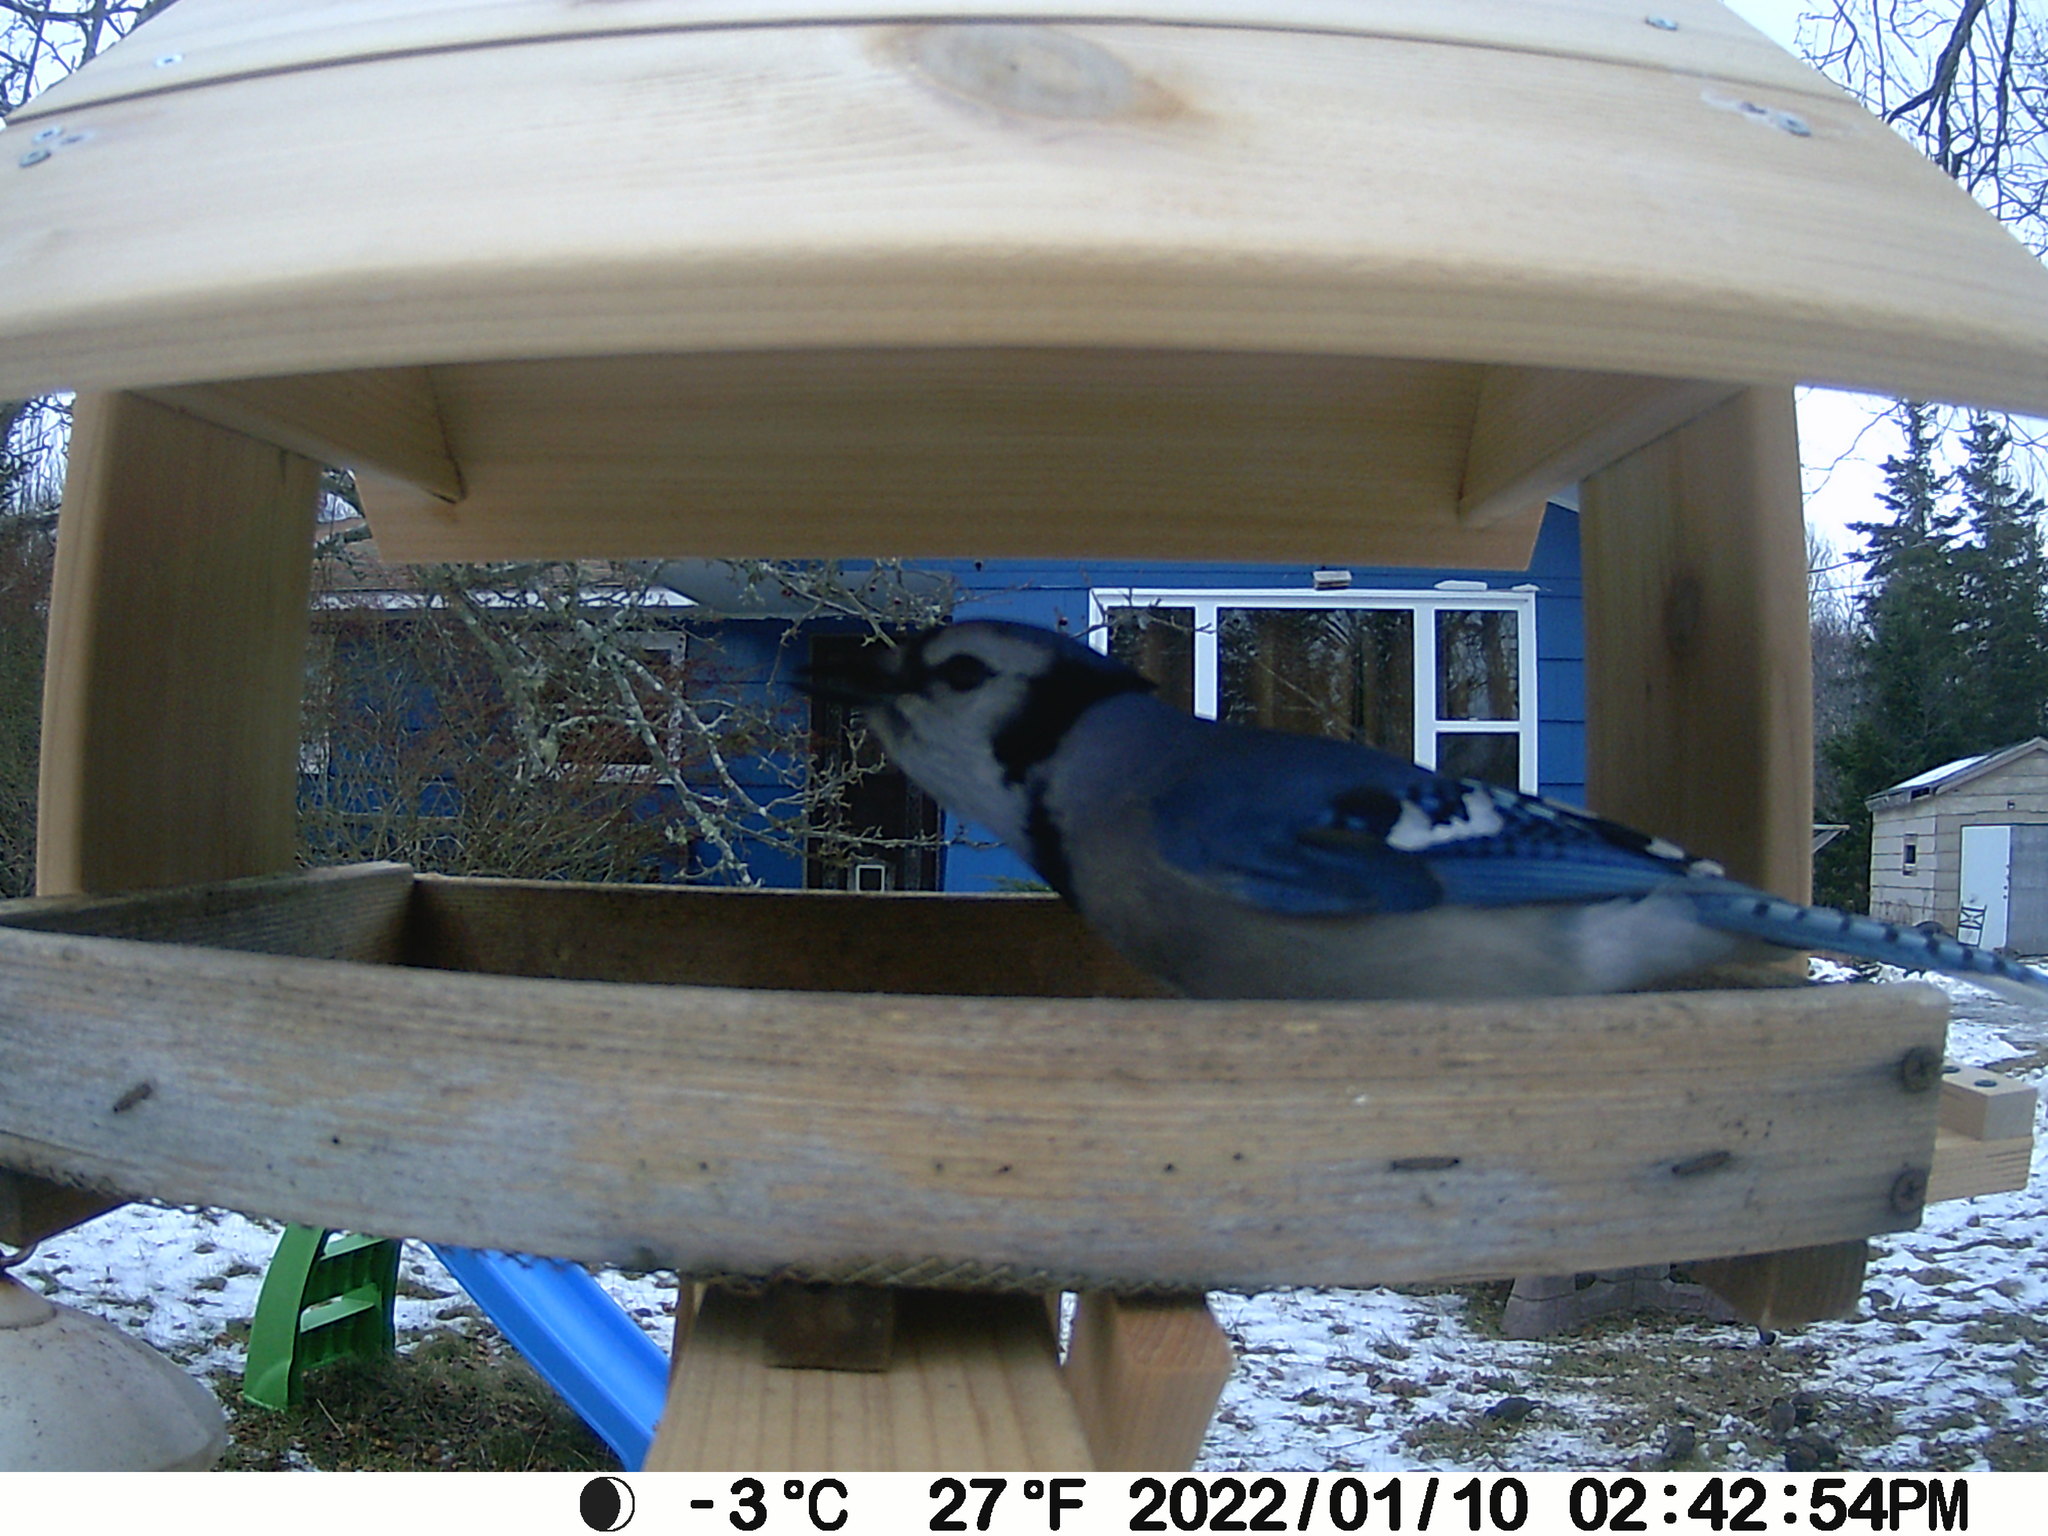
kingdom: Animalia
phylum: Chordata
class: Aves
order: Passeriformes
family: Sturnidae
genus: Sturnus
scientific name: Sturnus vulgaris
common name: Common starling
